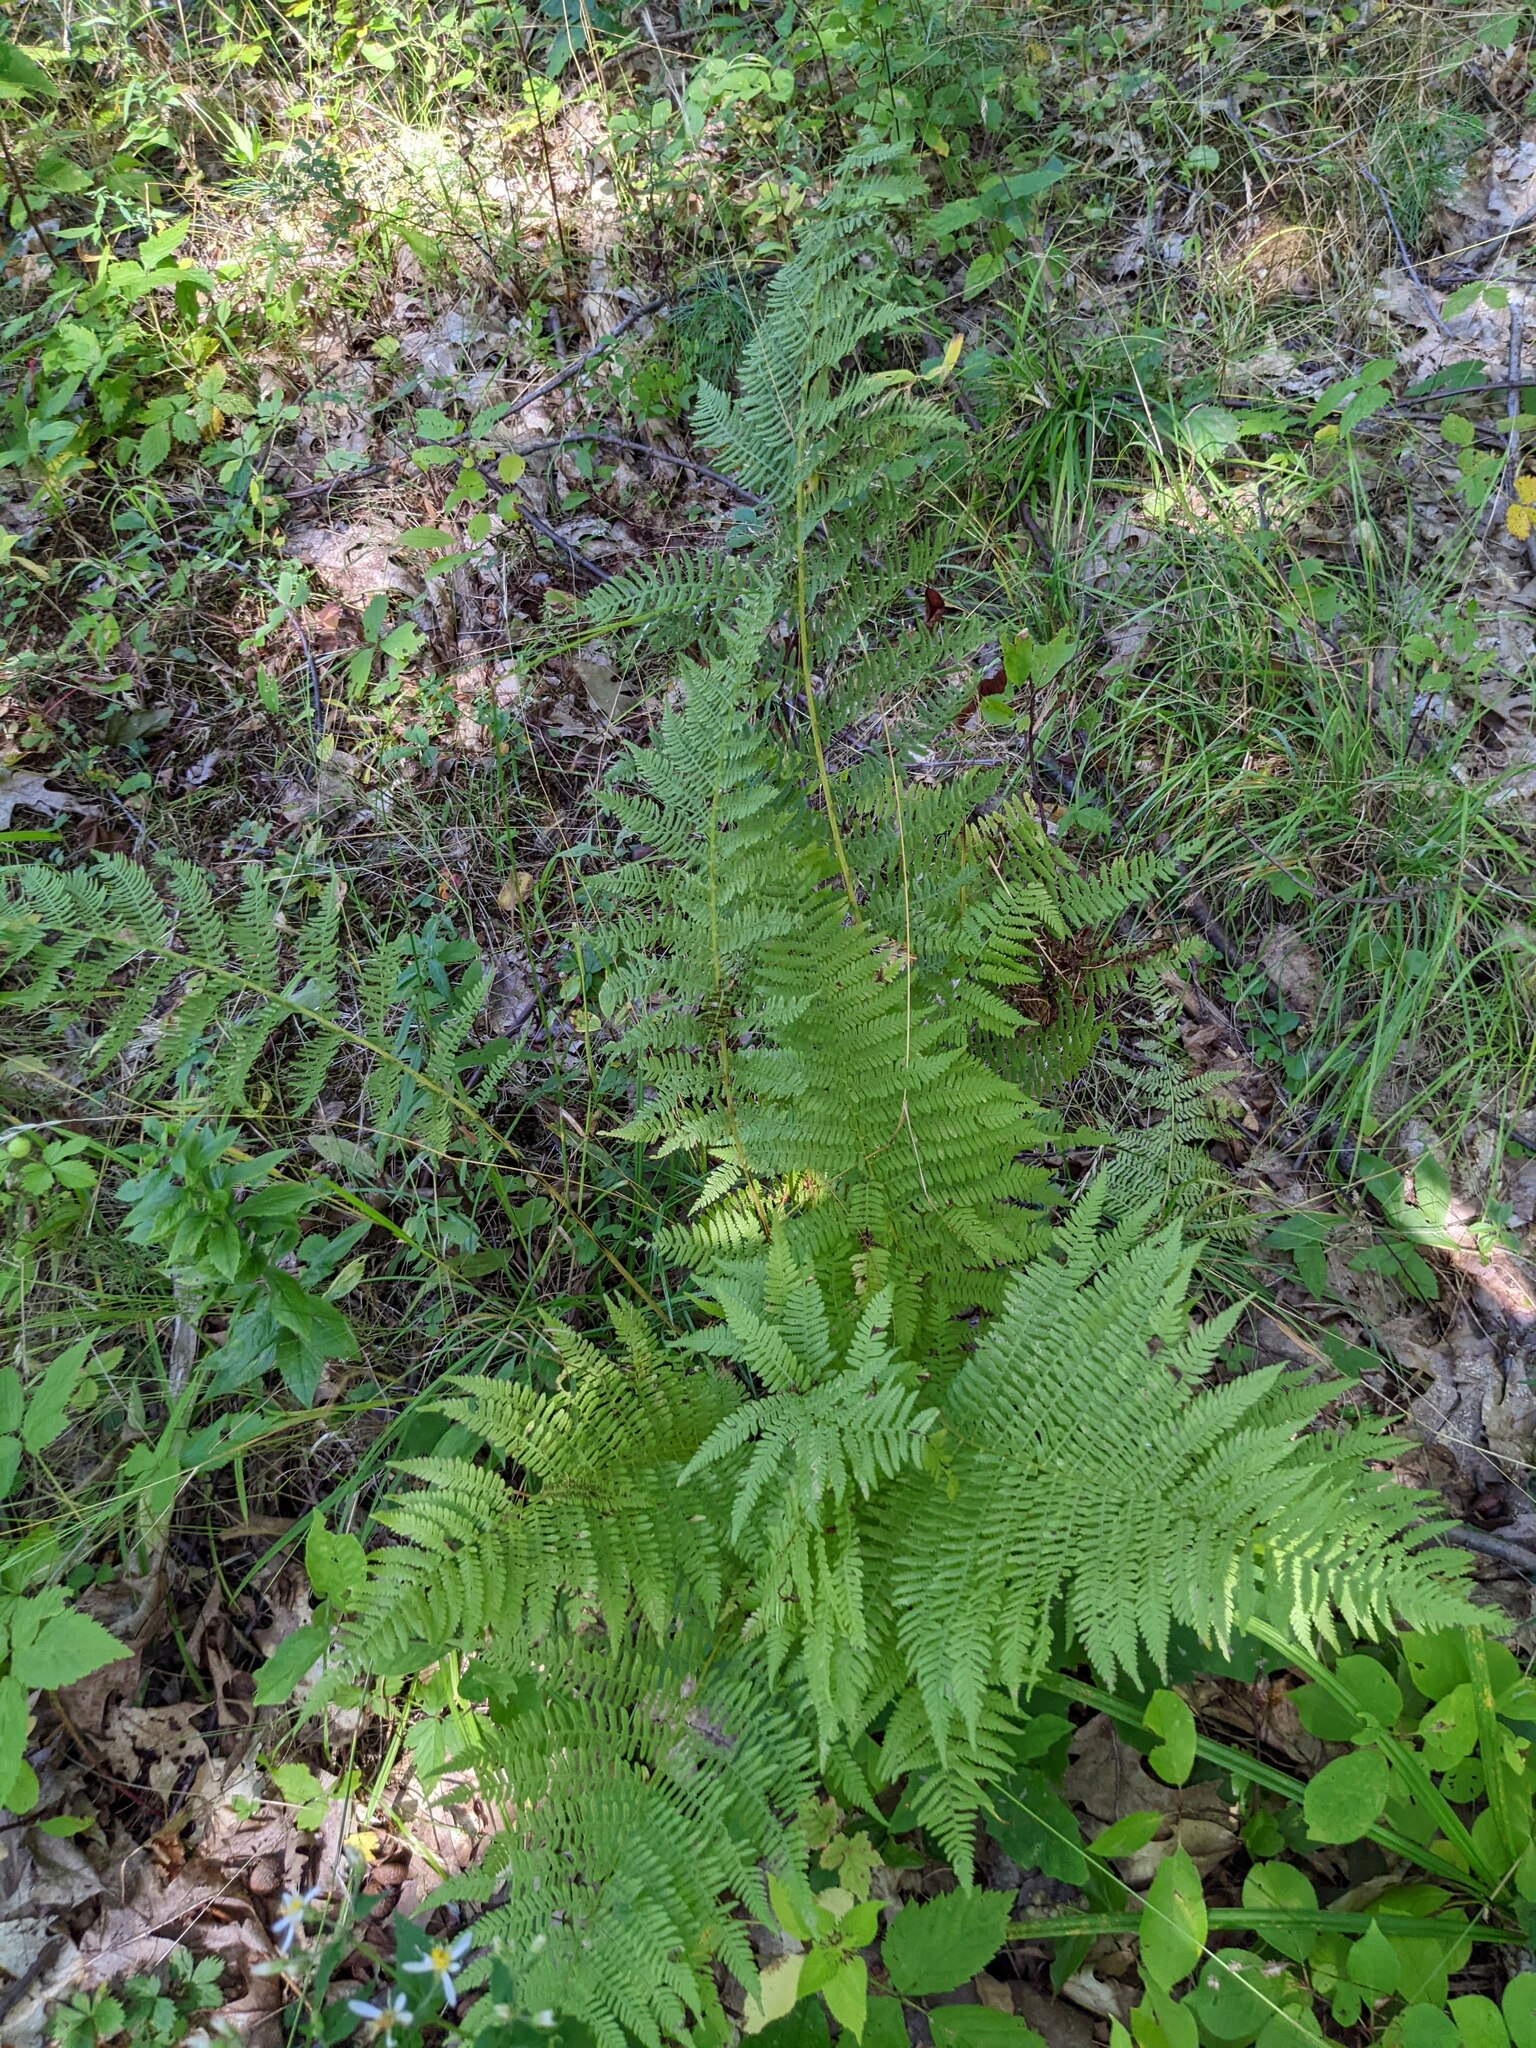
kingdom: Plantae
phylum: Tracheophyta
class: Polypodiopsida
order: Polypodiales
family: Athyriaceae
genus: Athyrium
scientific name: Athyrium angustum
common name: Northern lady fern
